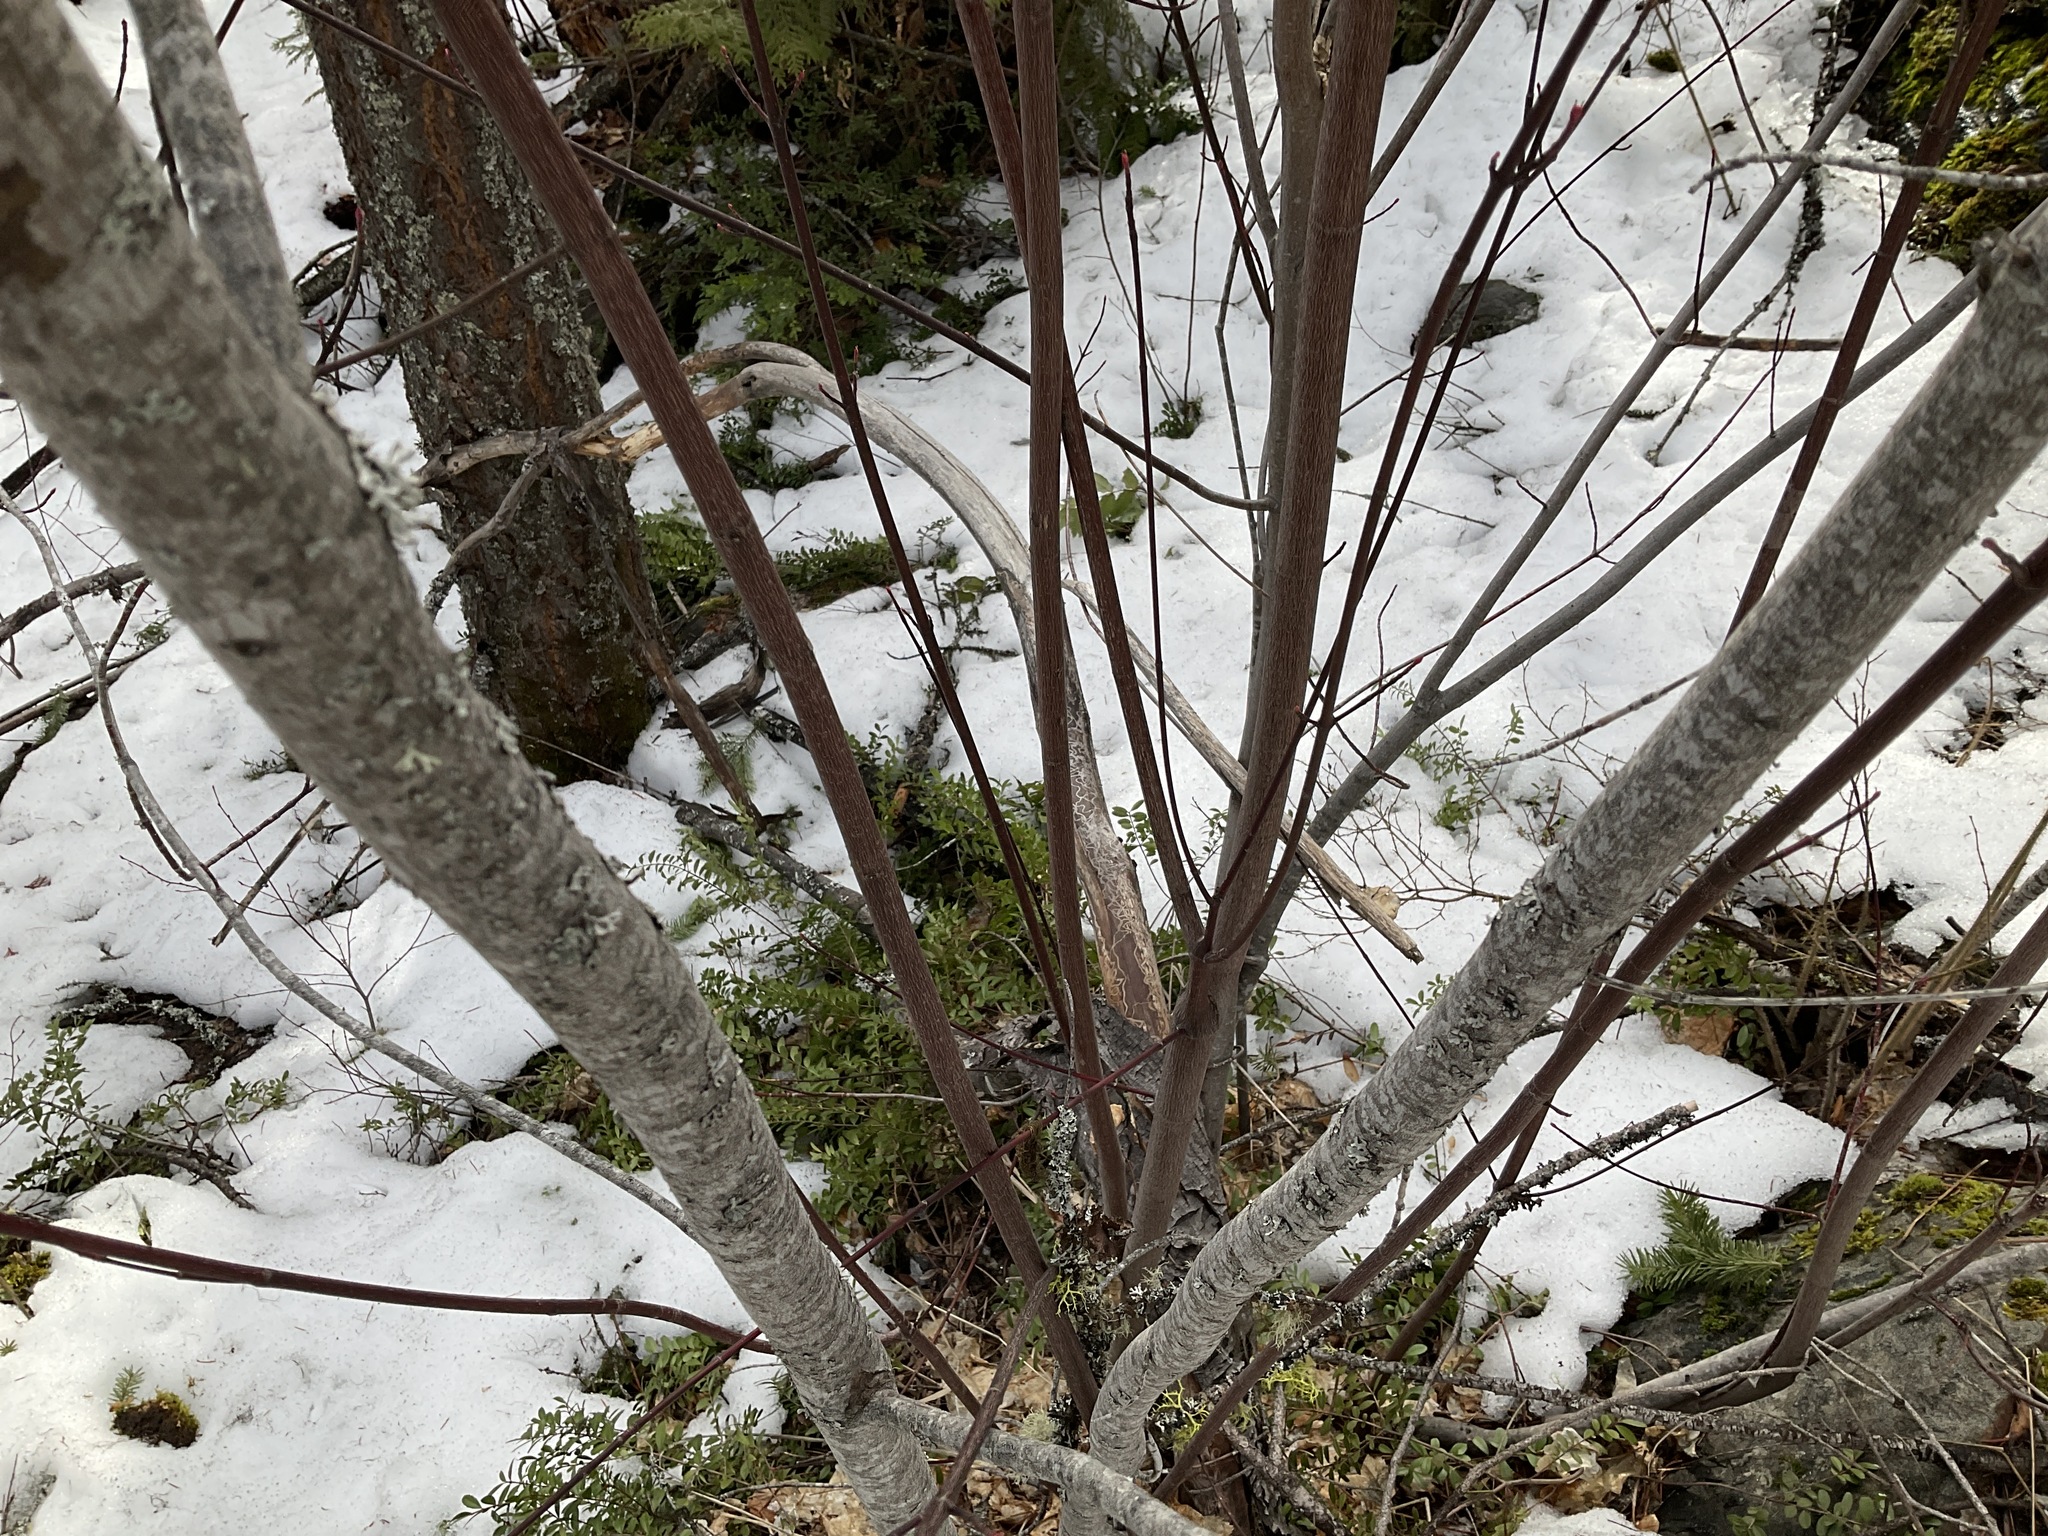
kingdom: Plantae
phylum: Tracheophyta
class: Magnoliopsida
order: Sapindales
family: Sapindaceae
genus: Acer
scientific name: Acer glabrum
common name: Rocky mountain maple
